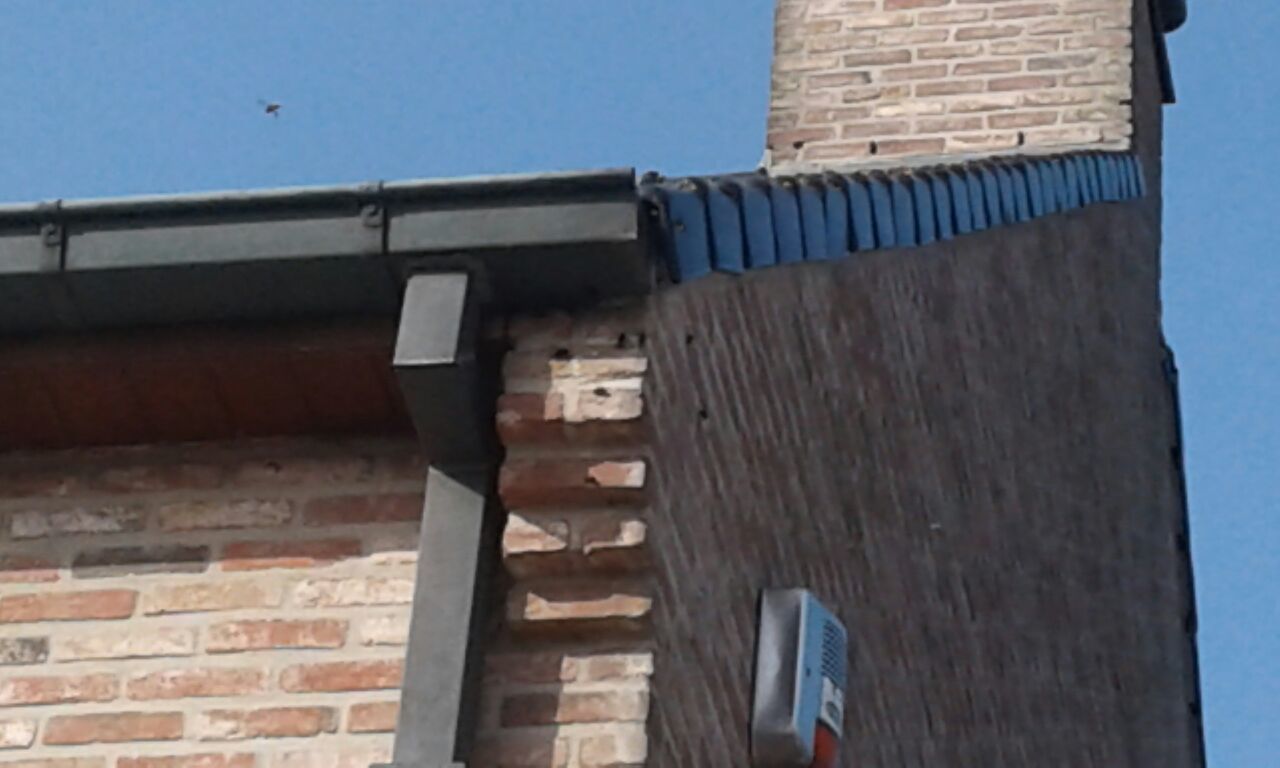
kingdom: Animalia
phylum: Arthropoda
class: Insecta
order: Hymenoptera
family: Vespidae
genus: Vespa
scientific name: Vespa velutina
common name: Asian hornet
